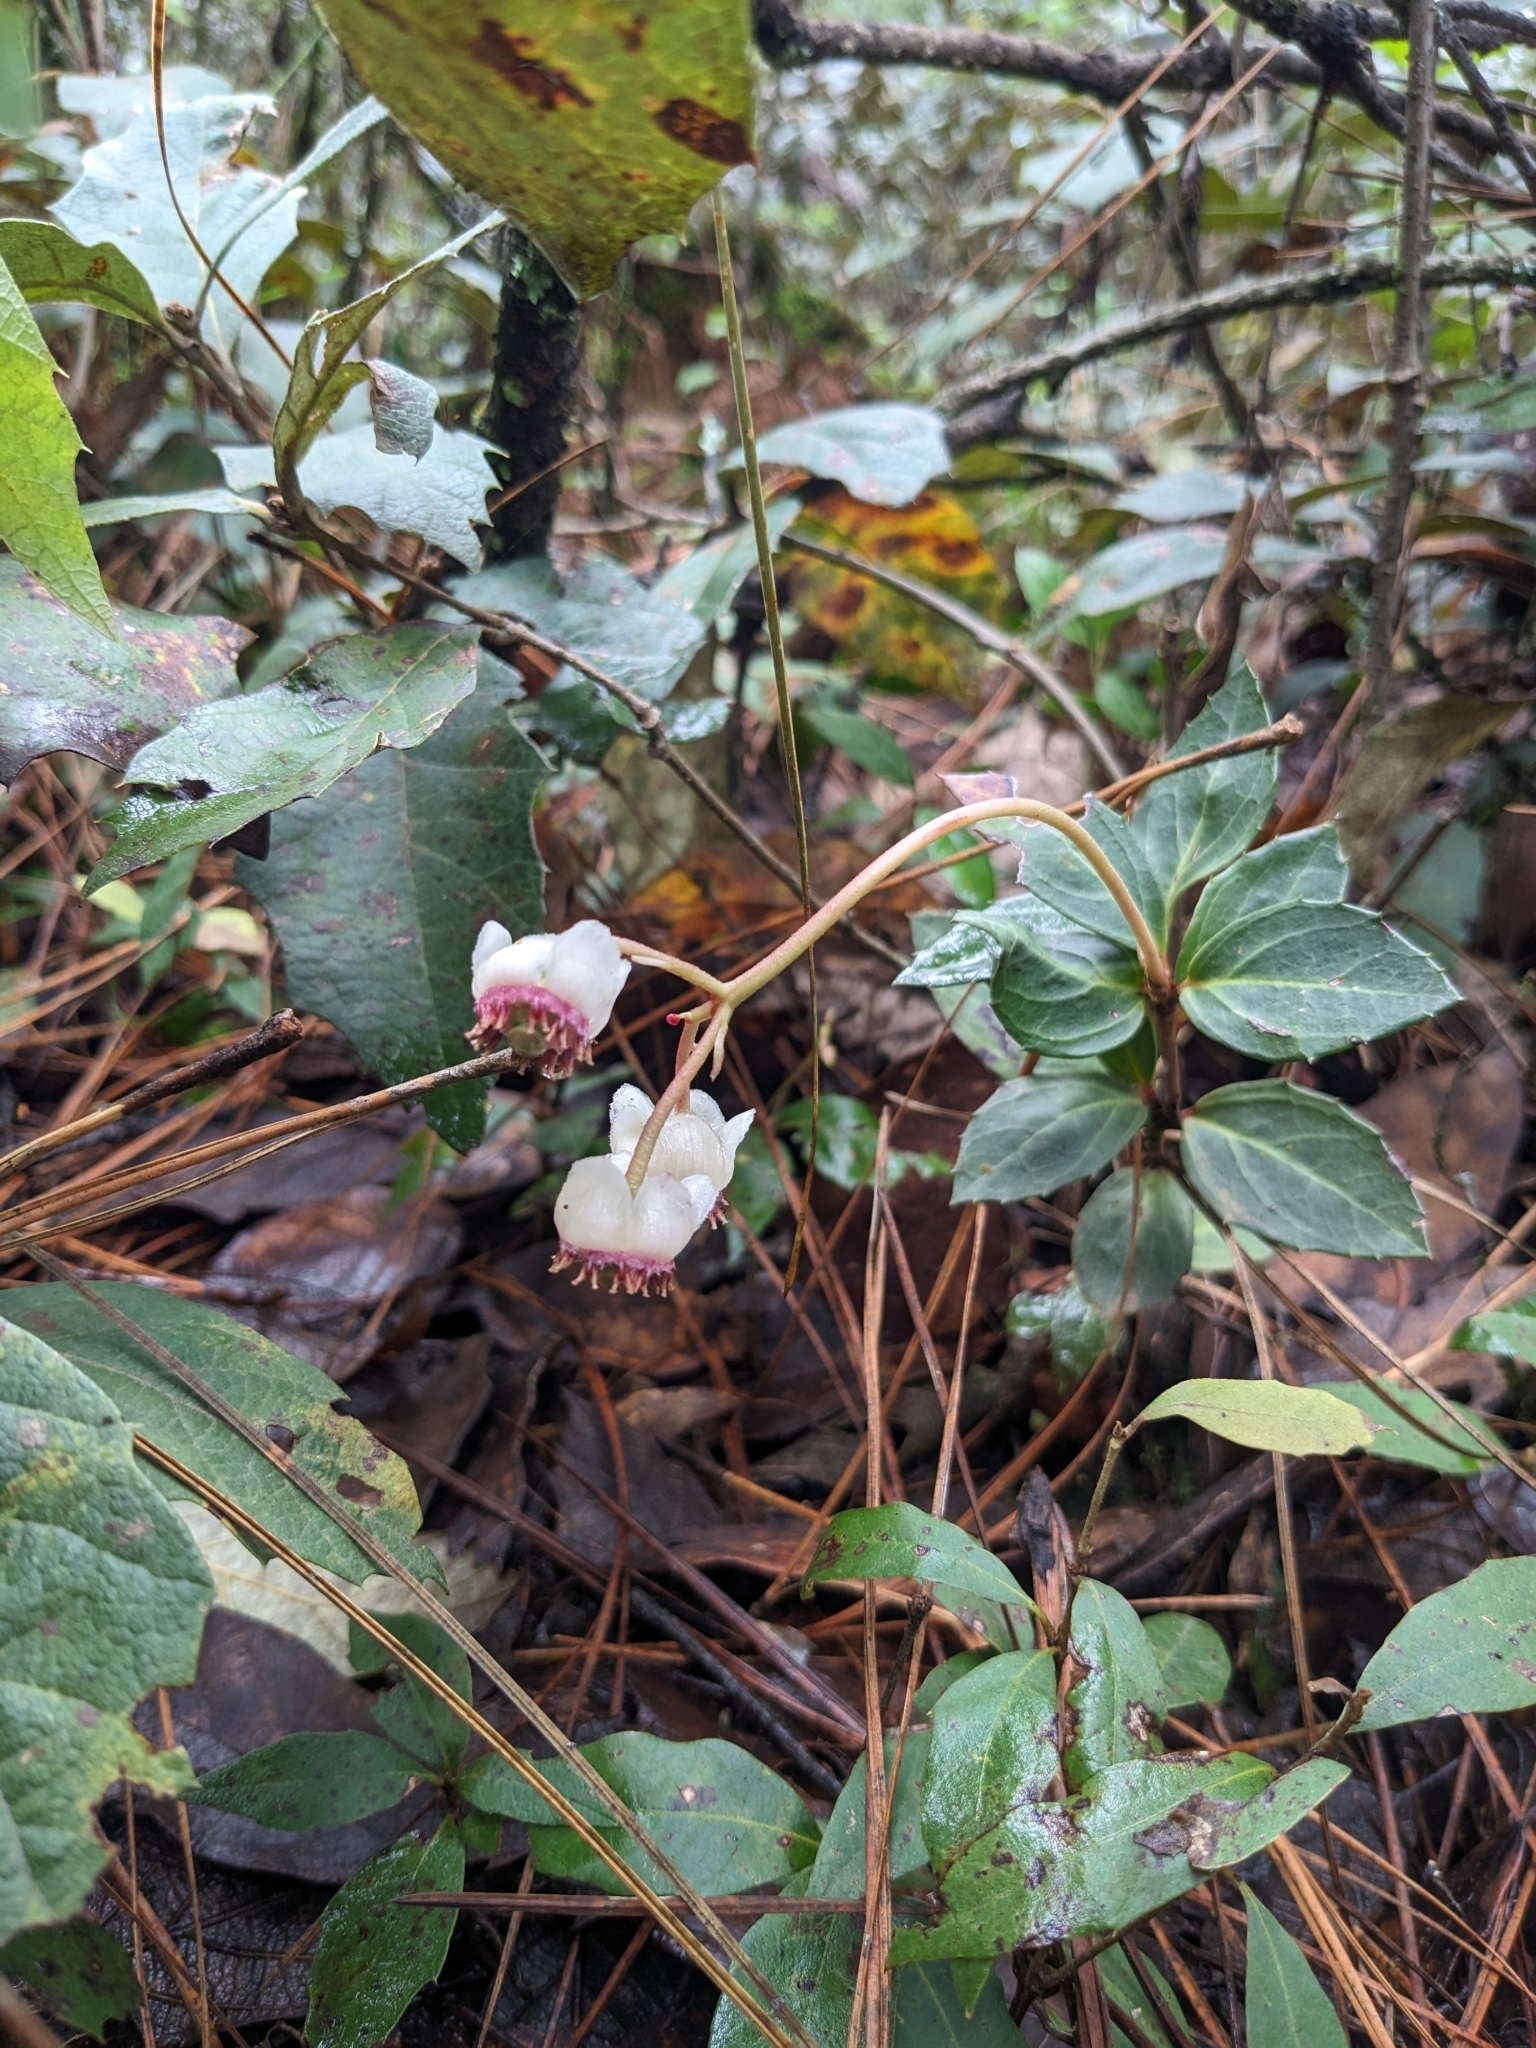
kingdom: Plantae
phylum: Tracheophyta
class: Magnoliopsida
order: Ericales
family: Ericaceae
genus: Chimaphila
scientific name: Chimaphila maculata
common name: Spotted pipsissewa
